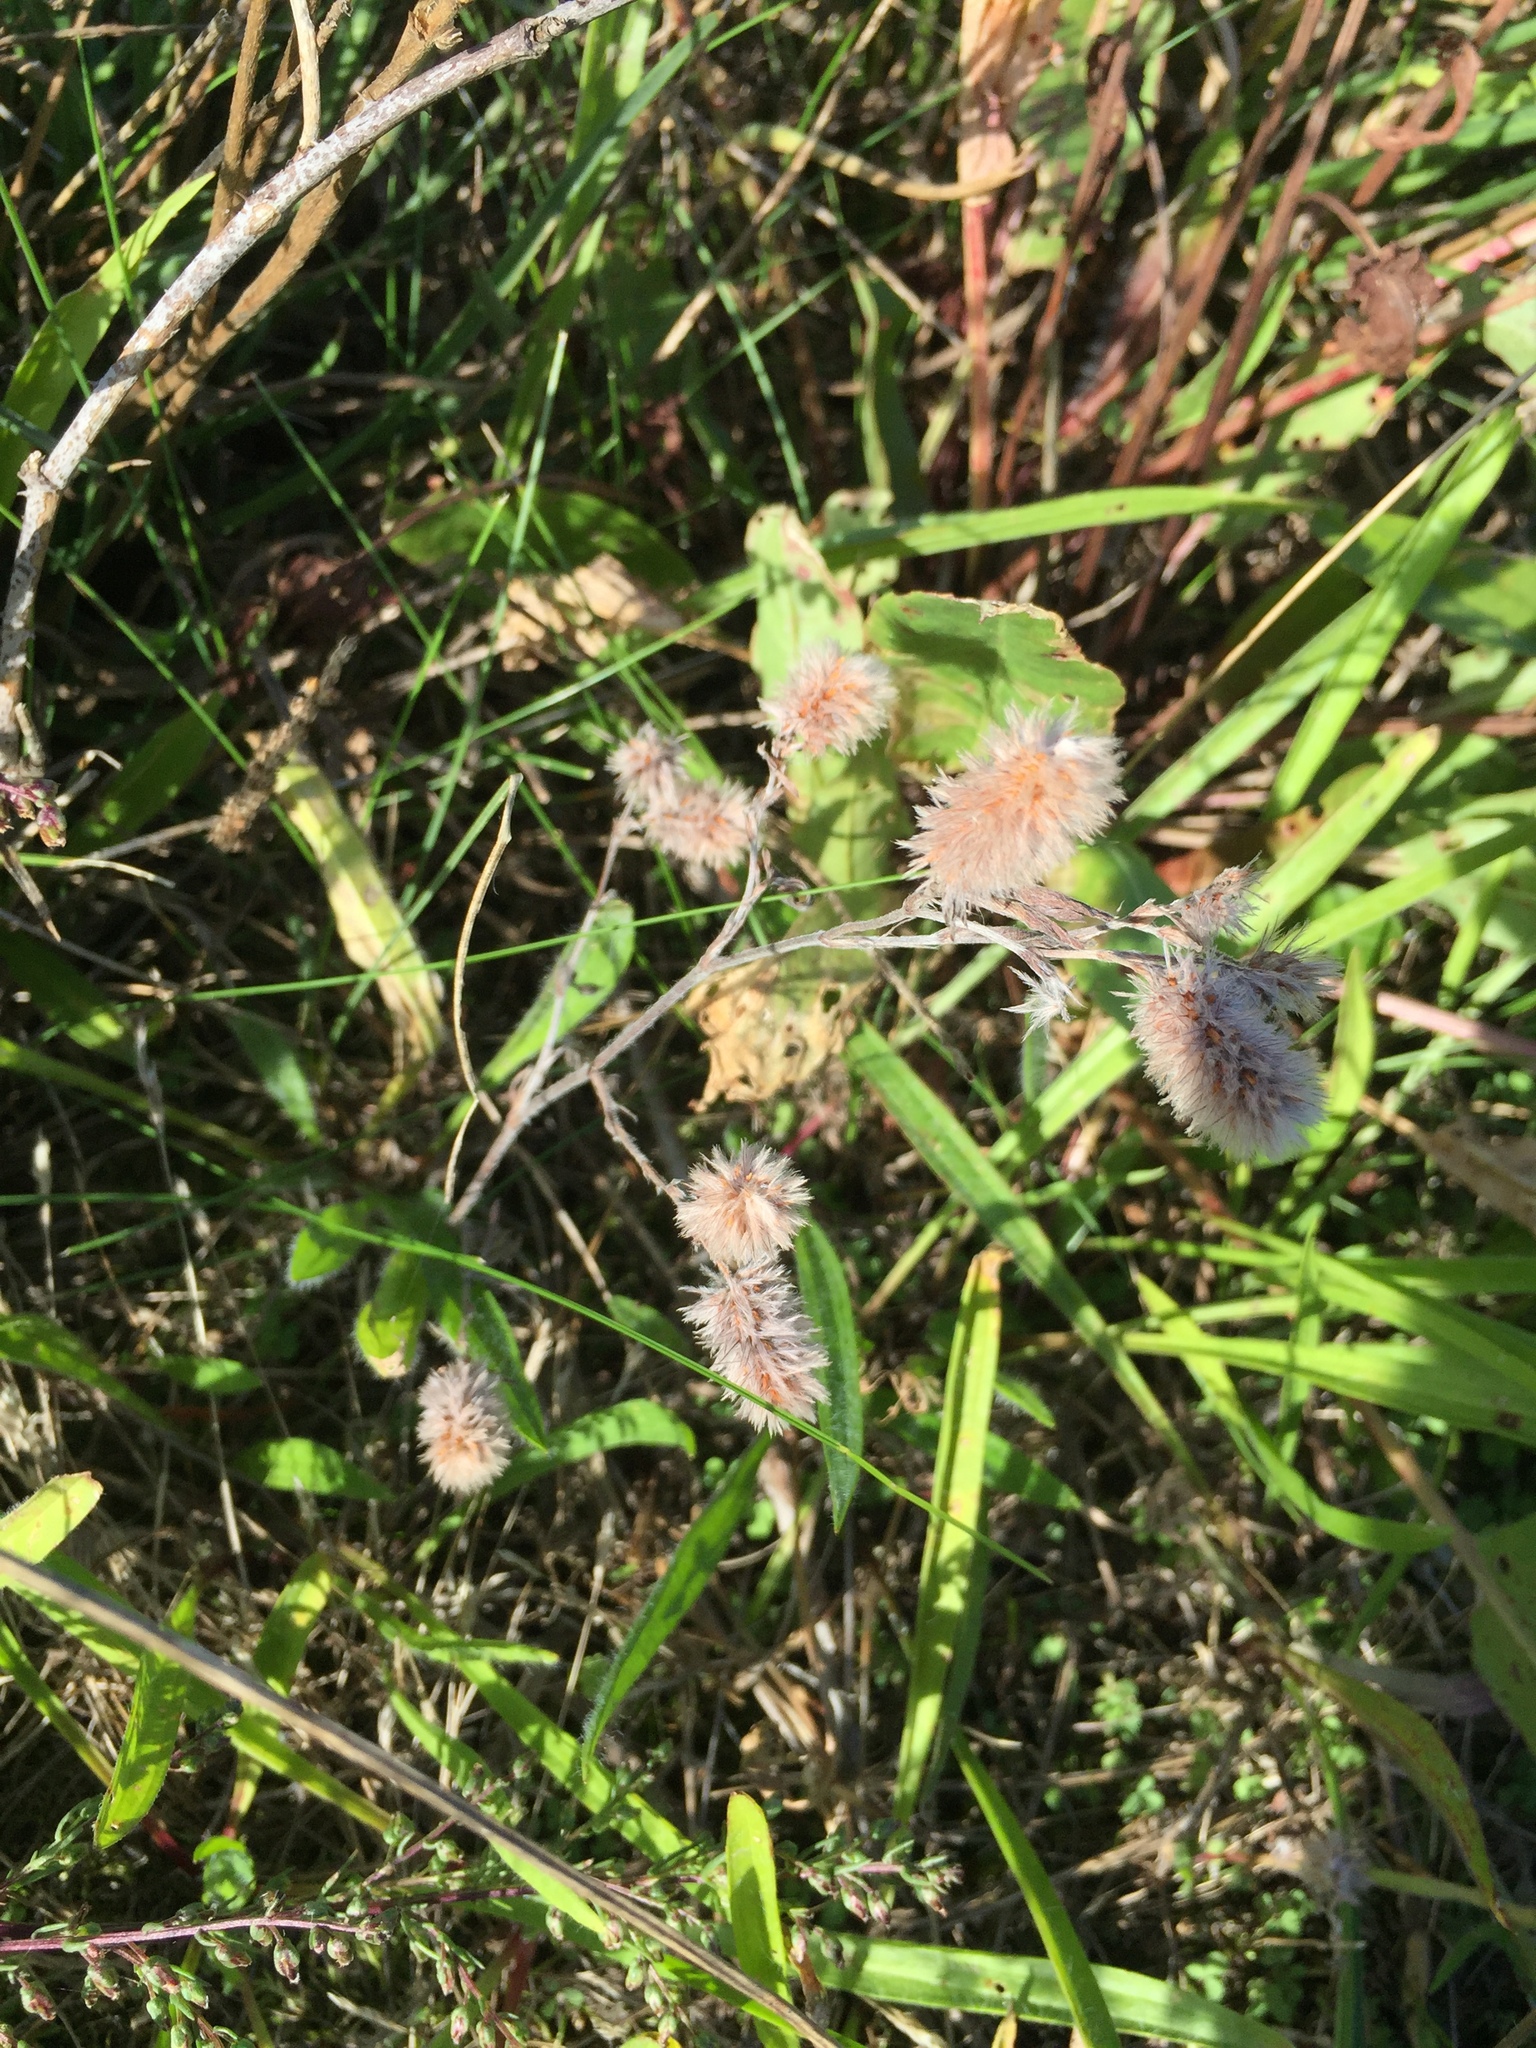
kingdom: Plantae
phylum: Tracheophyta
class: Magnoliopsida
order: Fabales
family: Fabaceae
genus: Trifolium
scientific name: Trifolium arvense
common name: Hare's-foot clover
